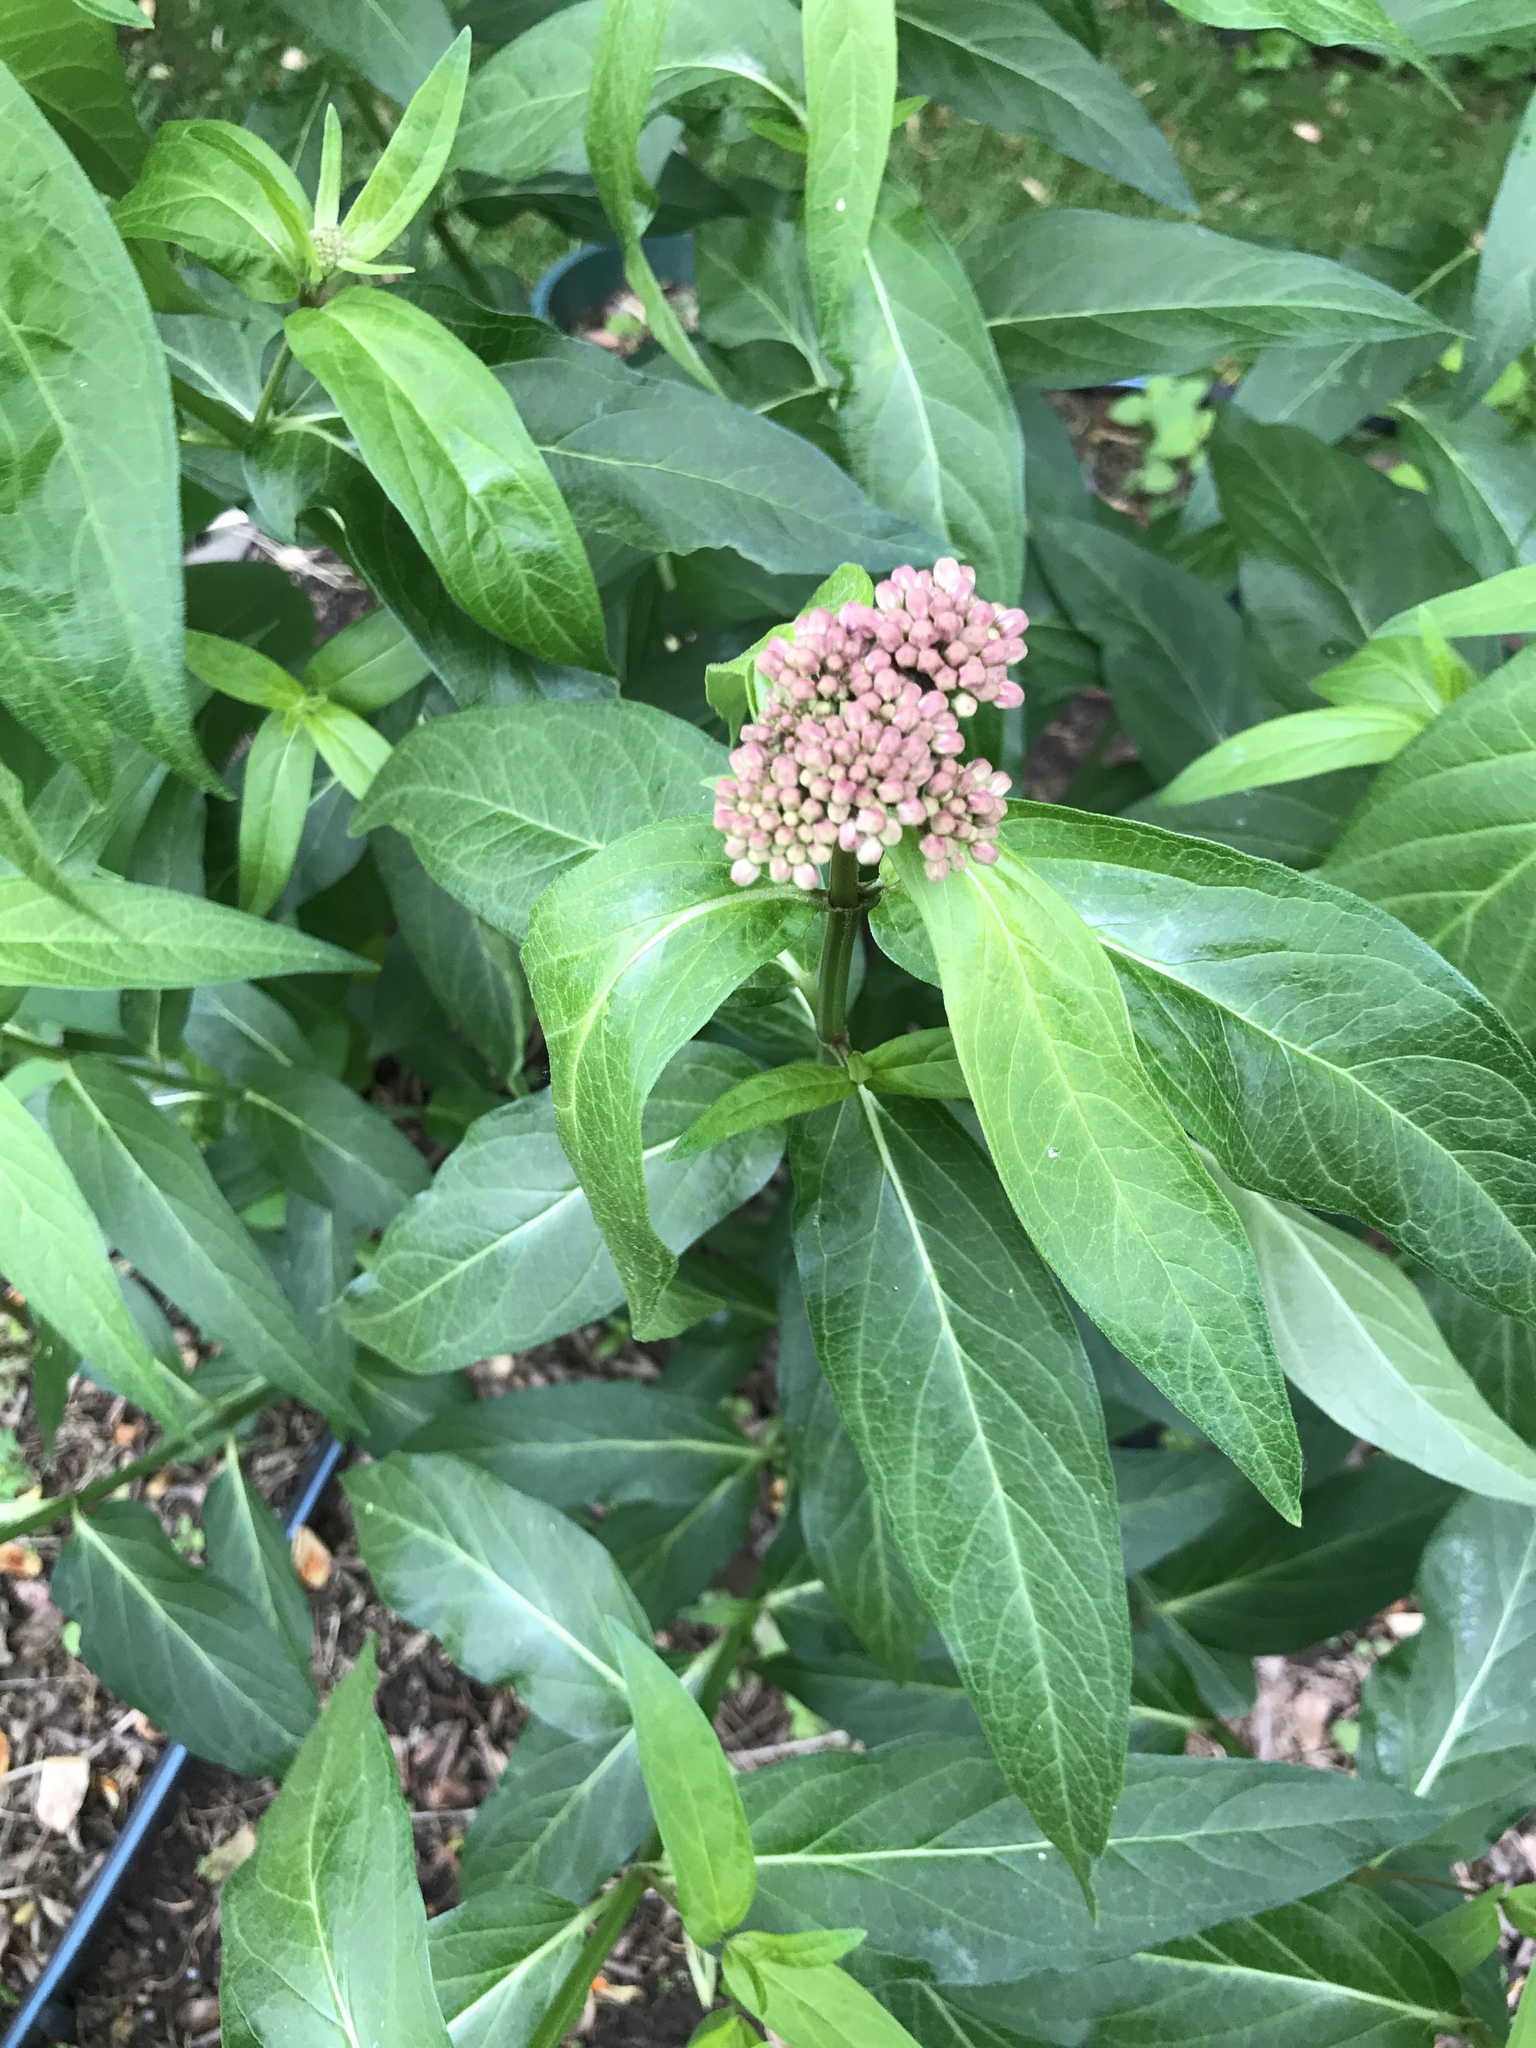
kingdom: Plantae
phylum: Tracheophyta
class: Magnoliopsida
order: Gentianales
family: Apocynaceae
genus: Asclepias
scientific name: Asclepias incarnata
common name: Swamp milkweed
